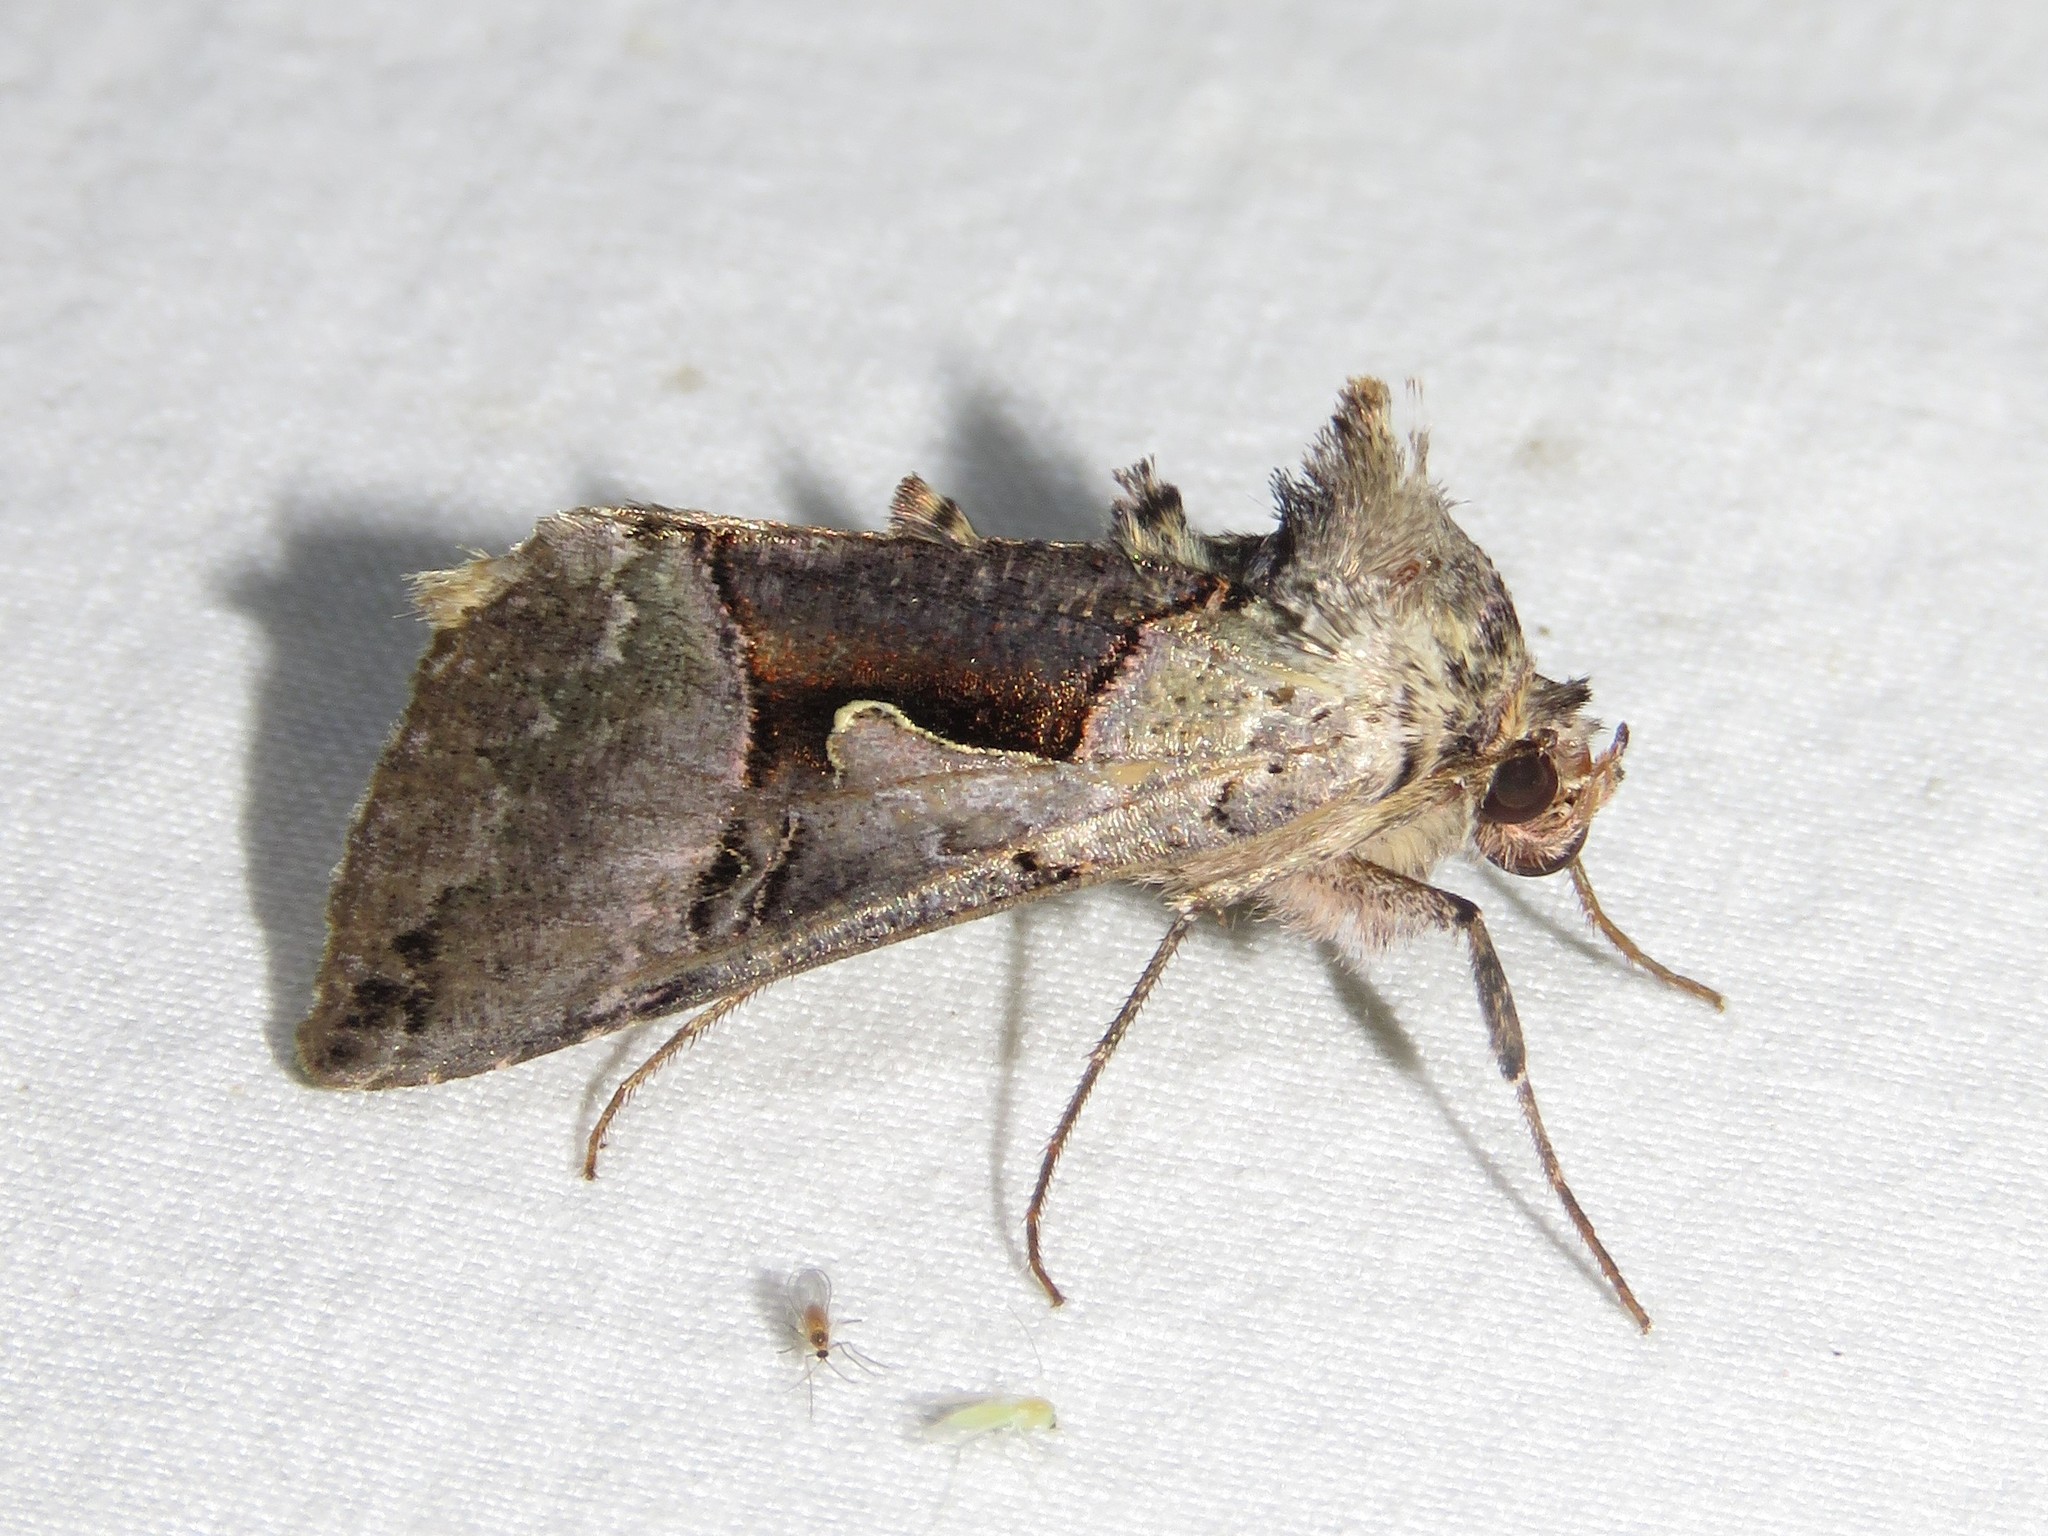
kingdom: Animalia
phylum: Arthropoda
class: Insecta
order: Lepidoptera
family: Noctuidae
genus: Autographa
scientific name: Autographa ampla
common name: Large looper moth
